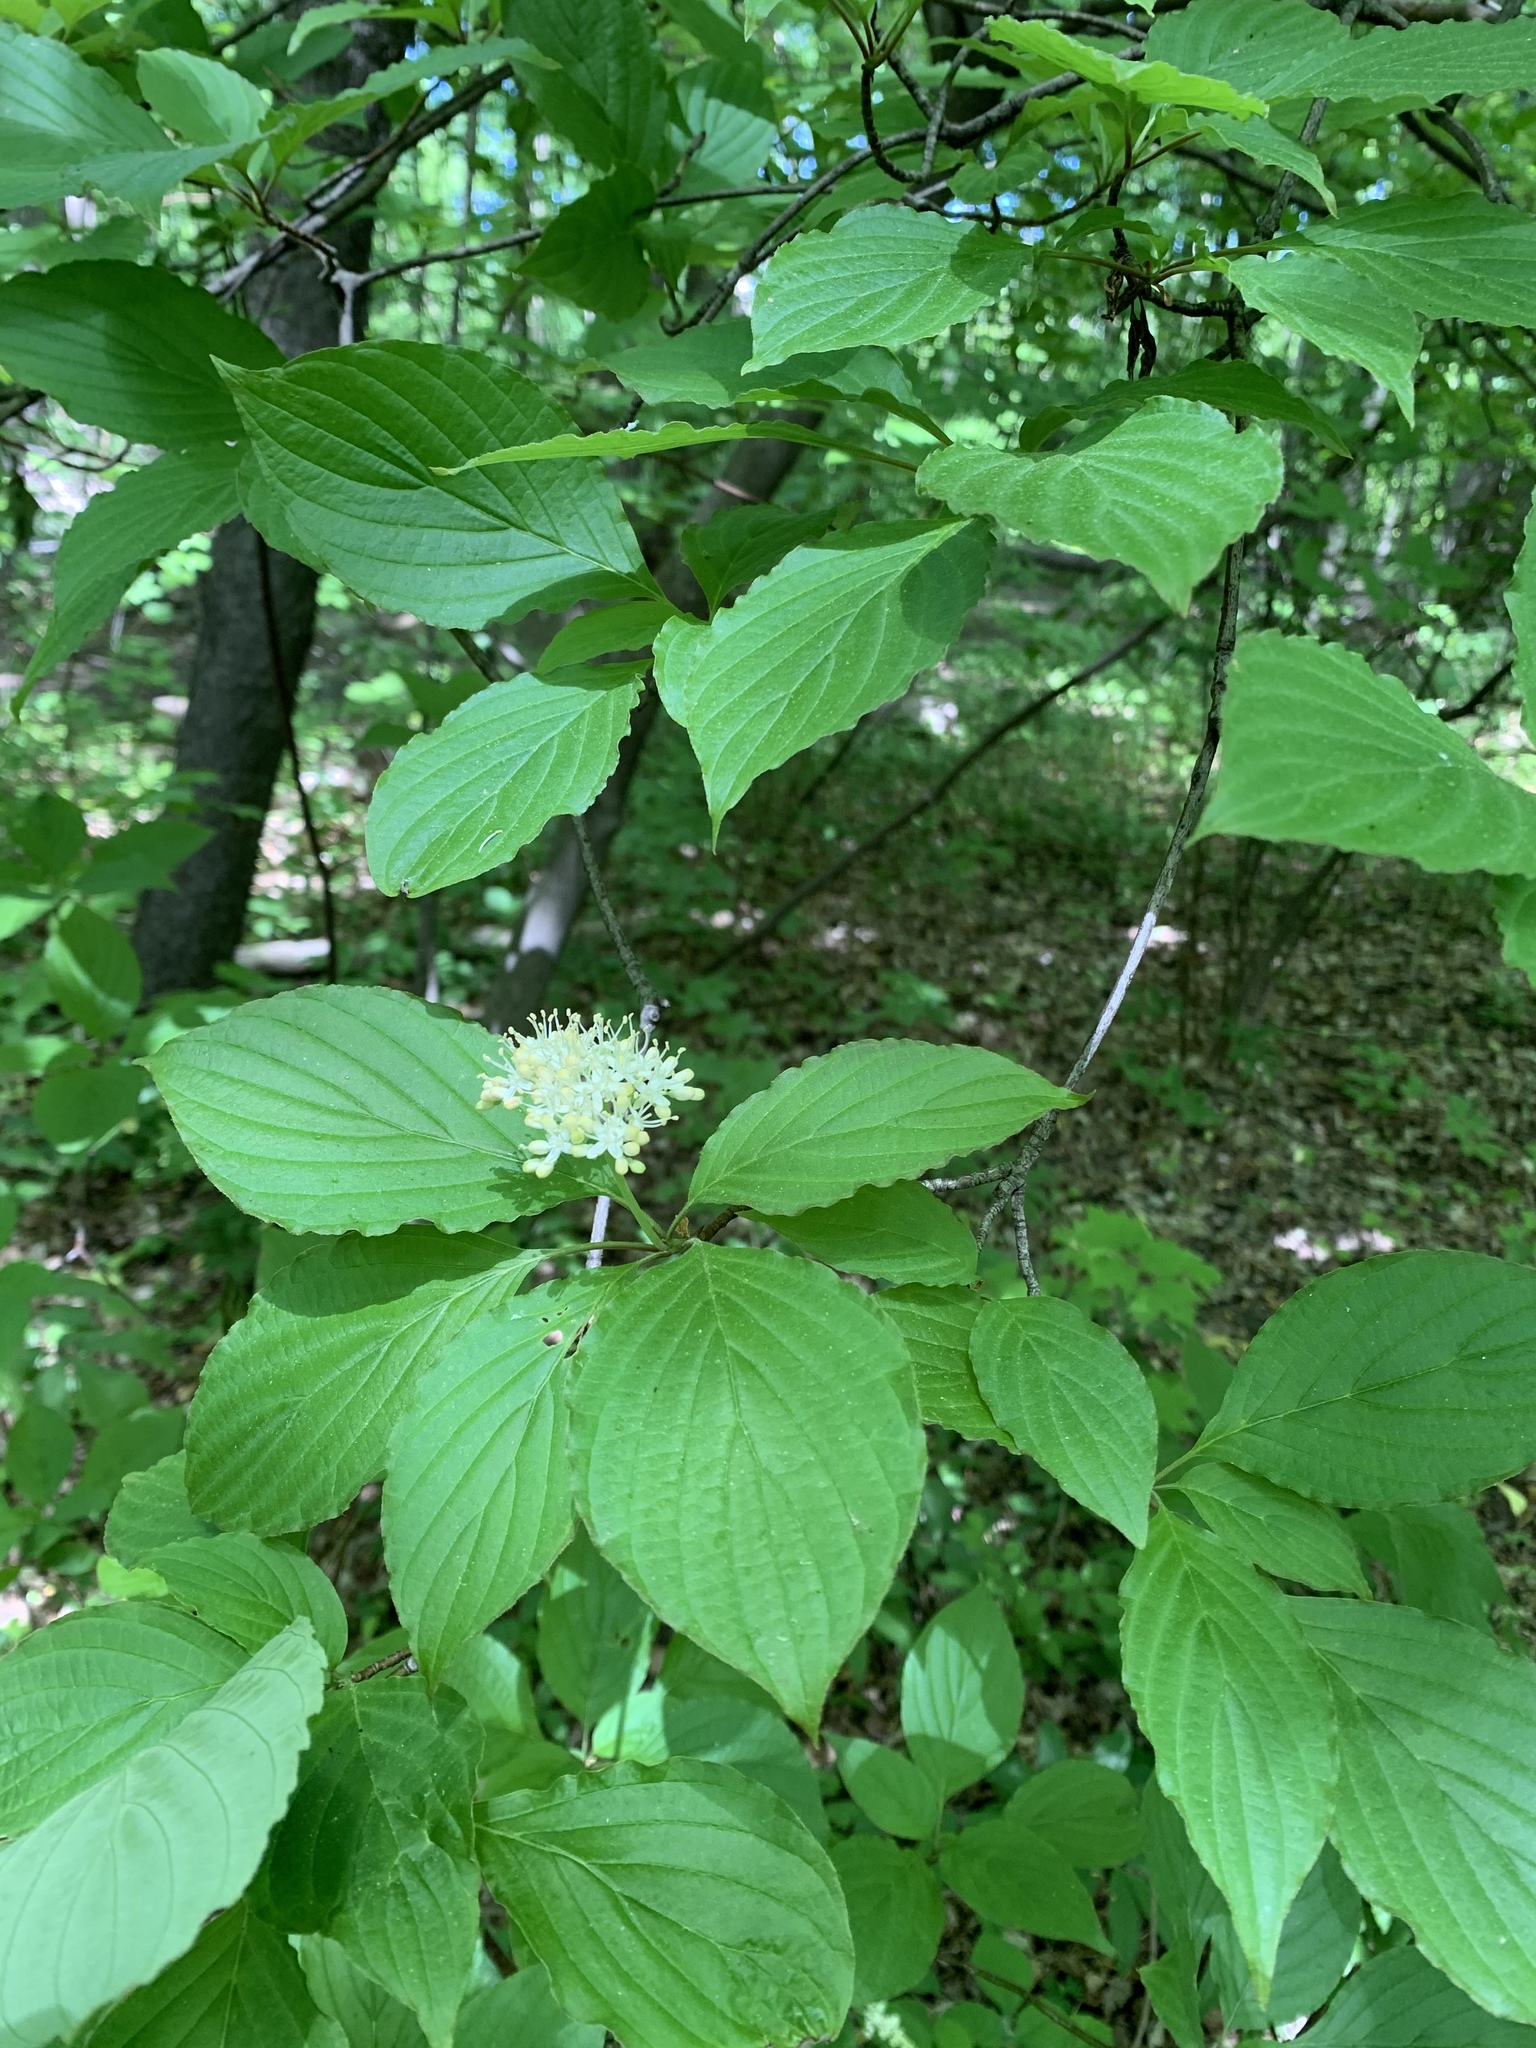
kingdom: Plantae
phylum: Tracheophyta
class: Magnoliopsida
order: Cornales
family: Cornaceae
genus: Cornus
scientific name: Cornus alternifolia
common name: Pagoda dogwood
